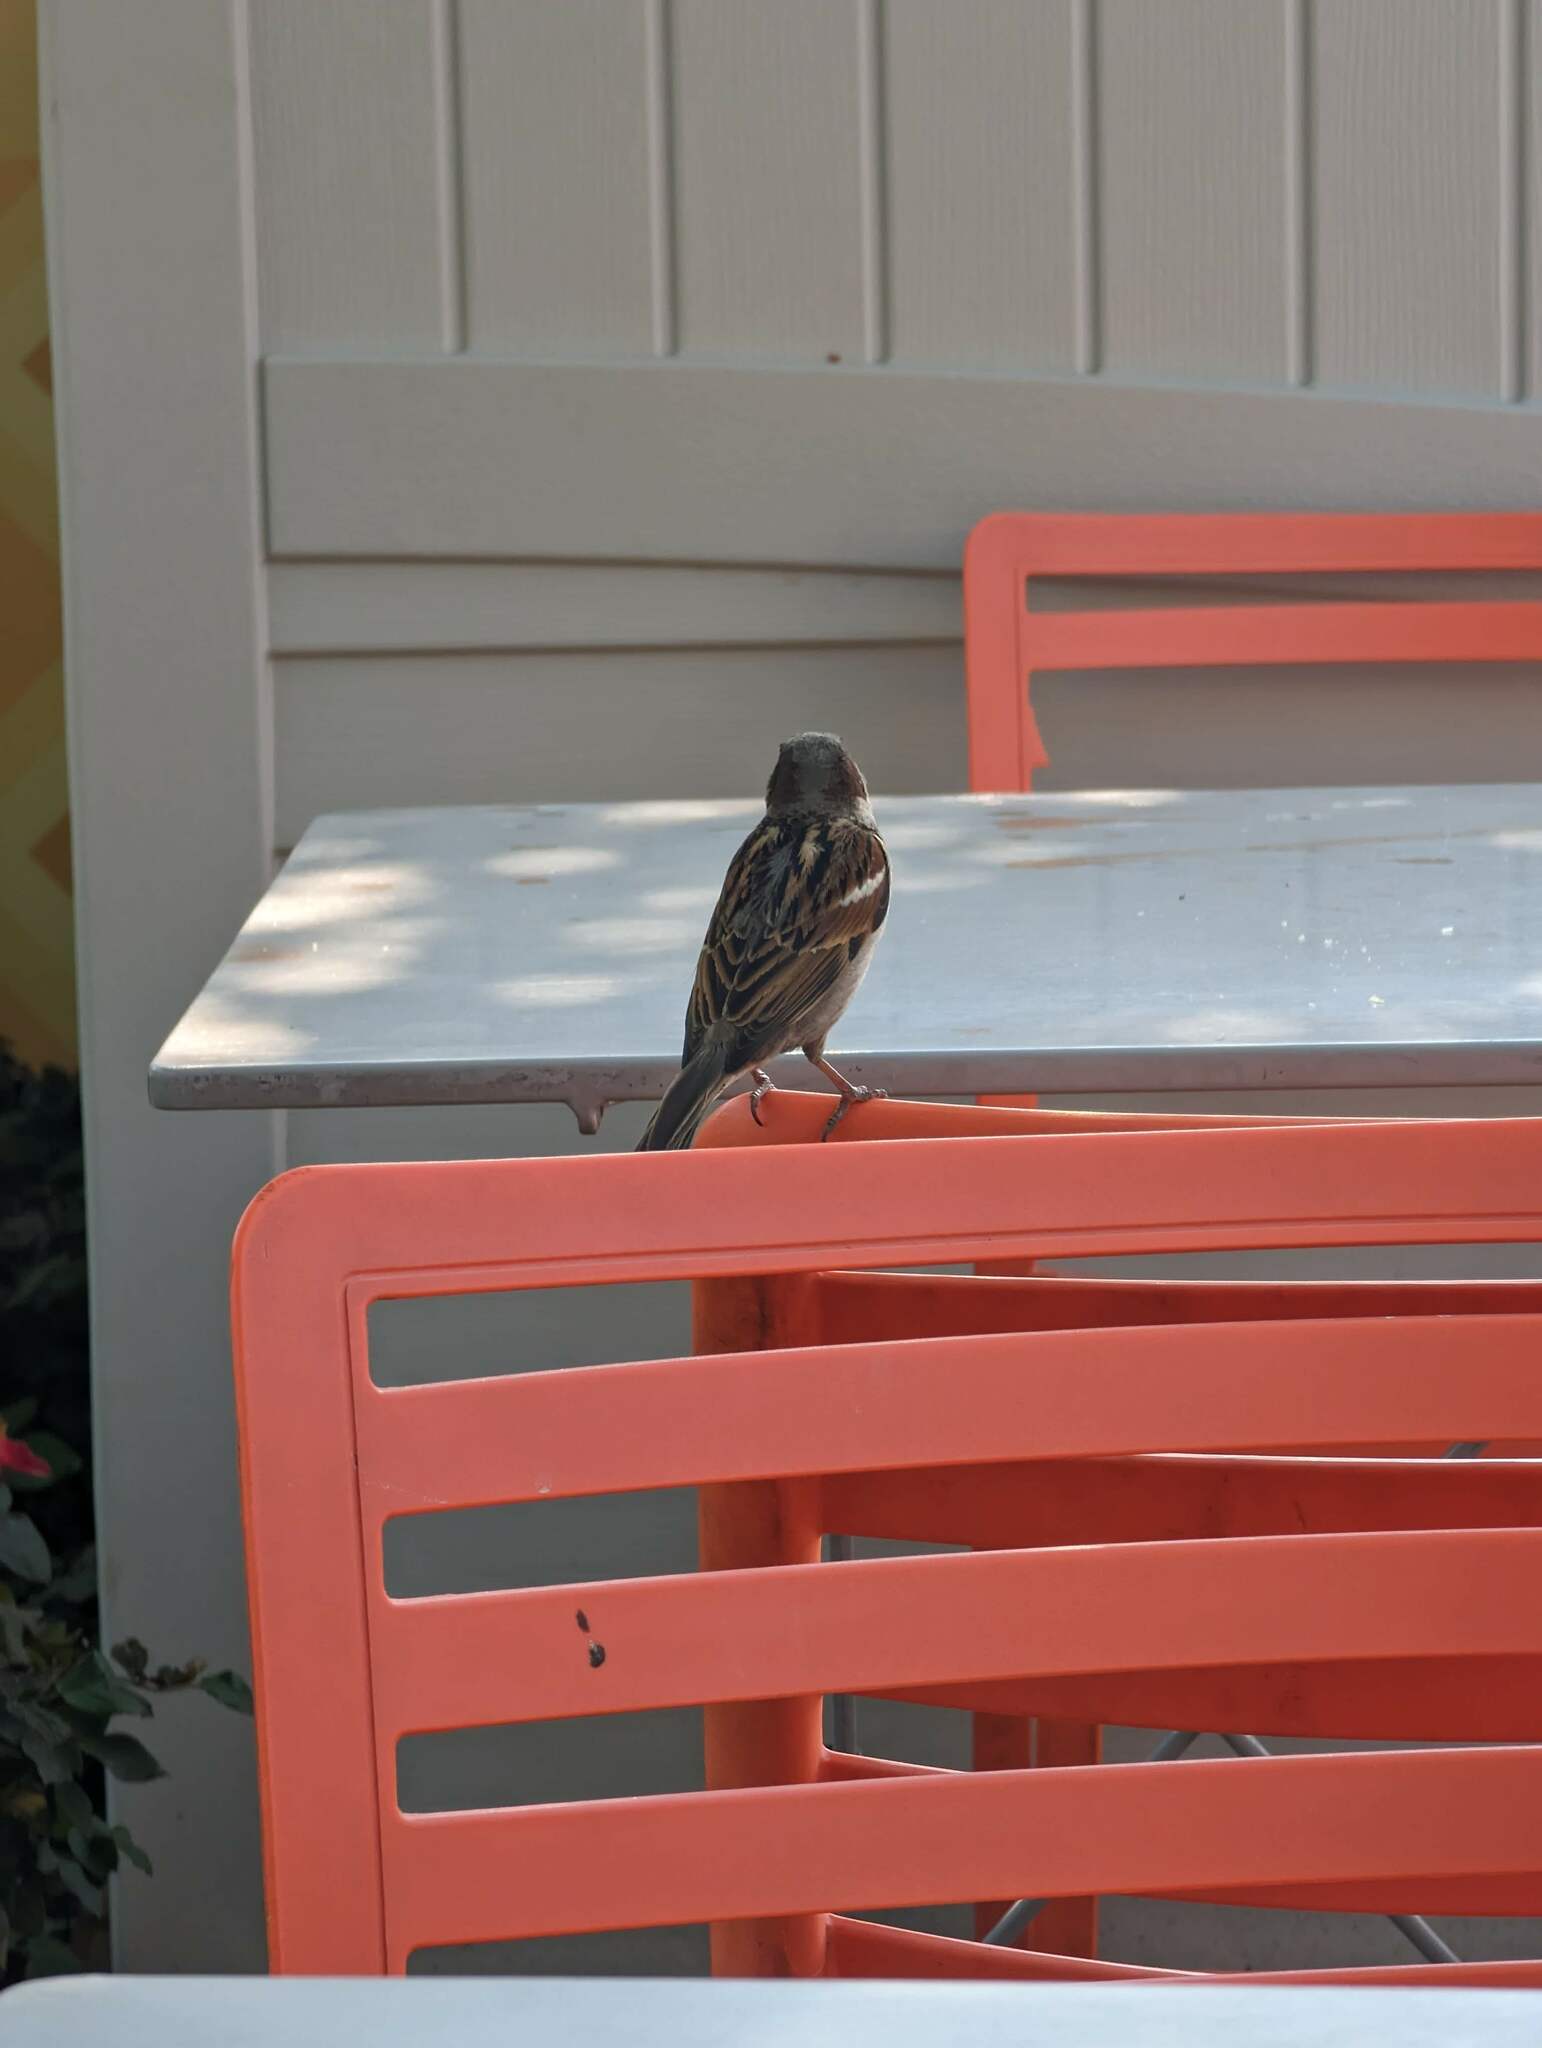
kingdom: Animalia
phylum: Chordata
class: Aves
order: Passeriformes
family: Passeridae
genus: Passer
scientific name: Passer domesticus
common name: House sparrow
